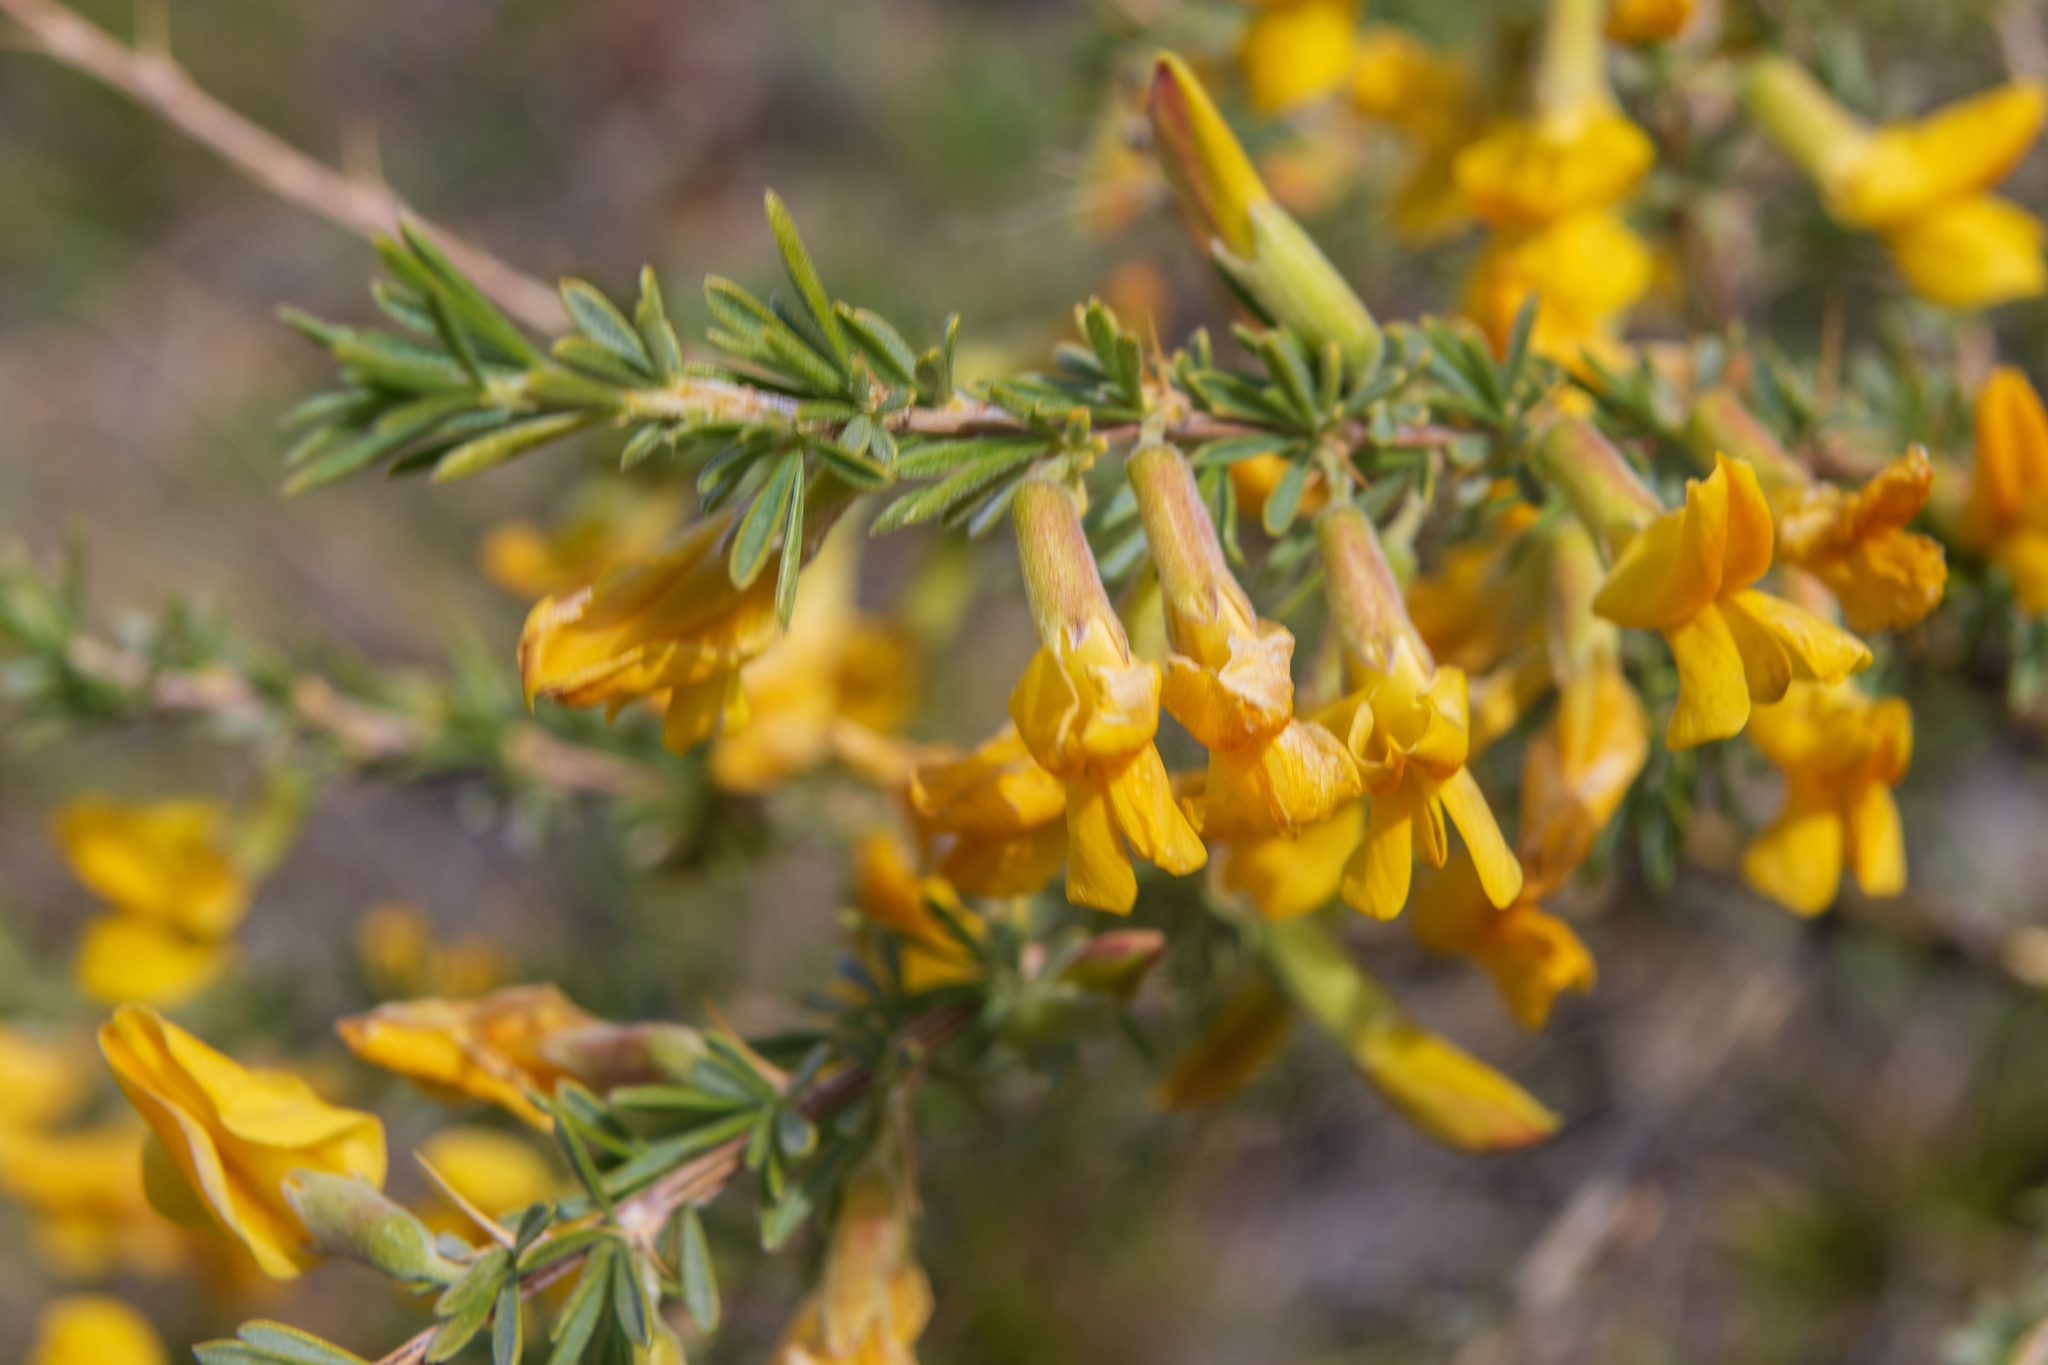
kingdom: Plantae
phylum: Tracheophyta
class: Magnoliopsida
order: Fabales
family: Fabaceae
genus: Caragana
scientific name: Caragana pygmaea
